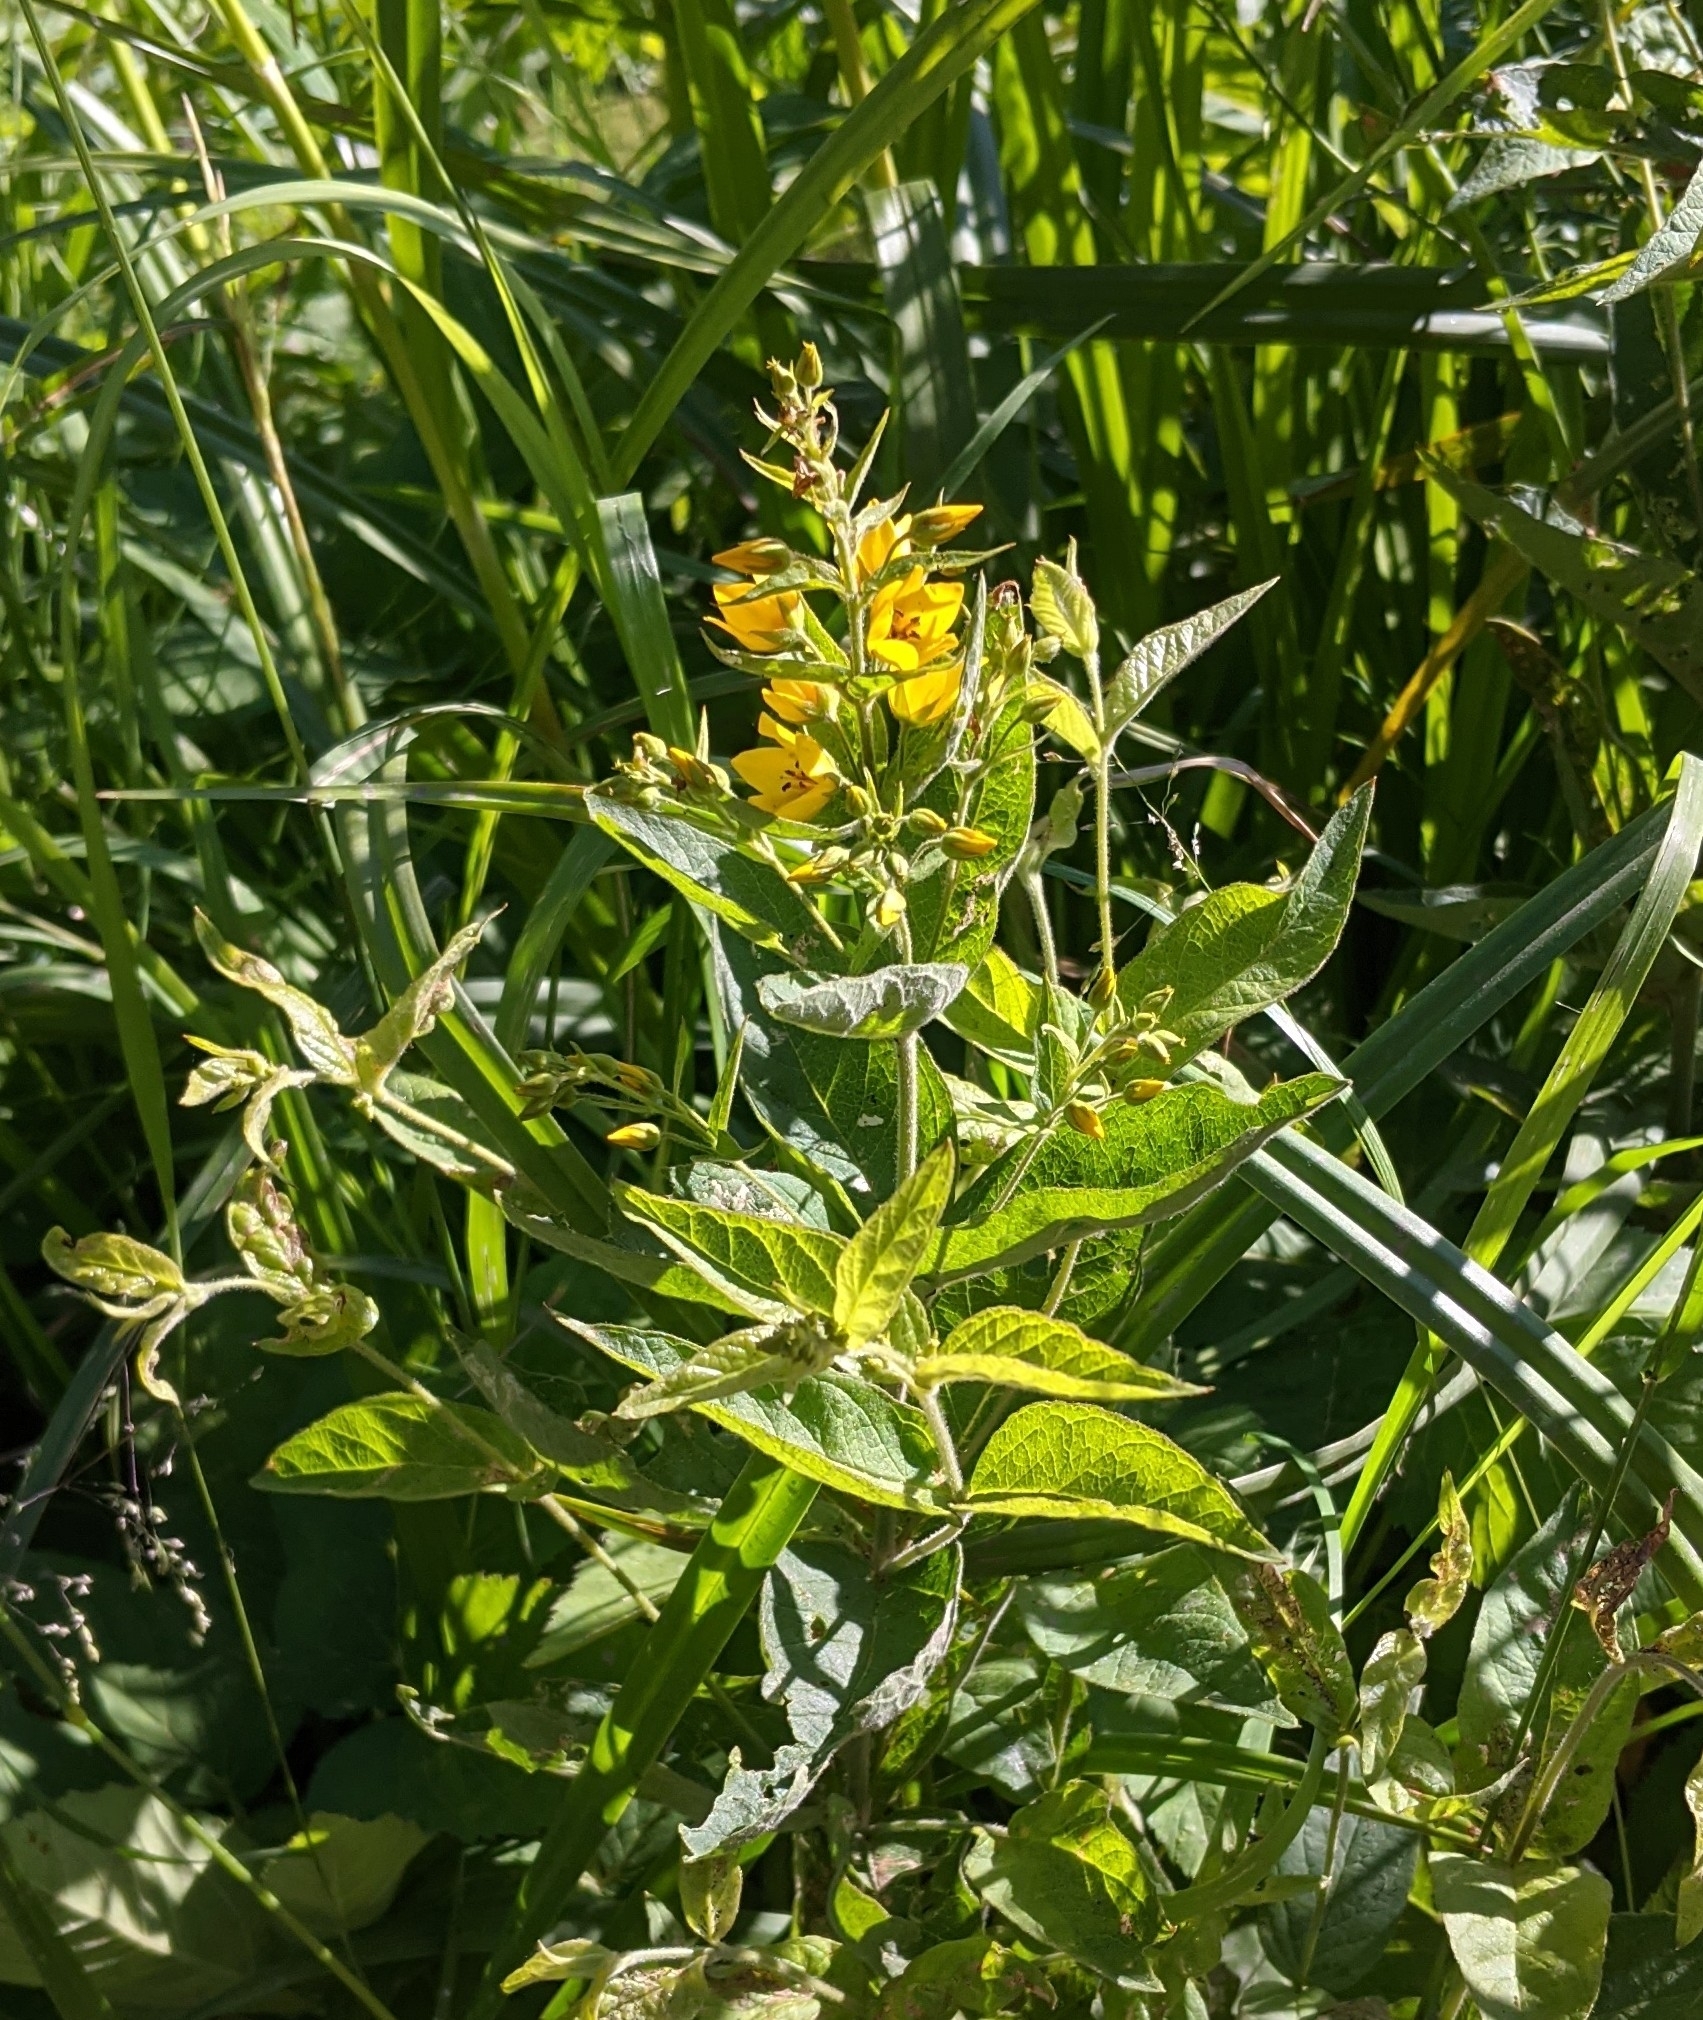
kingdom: Plantae
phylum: Tracheophyta
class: Magnoliopsida
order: Ericales
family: Primulaceae
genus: Lysimachia
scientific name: Lysimachia vulgaris
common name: Yellow loosestrife
